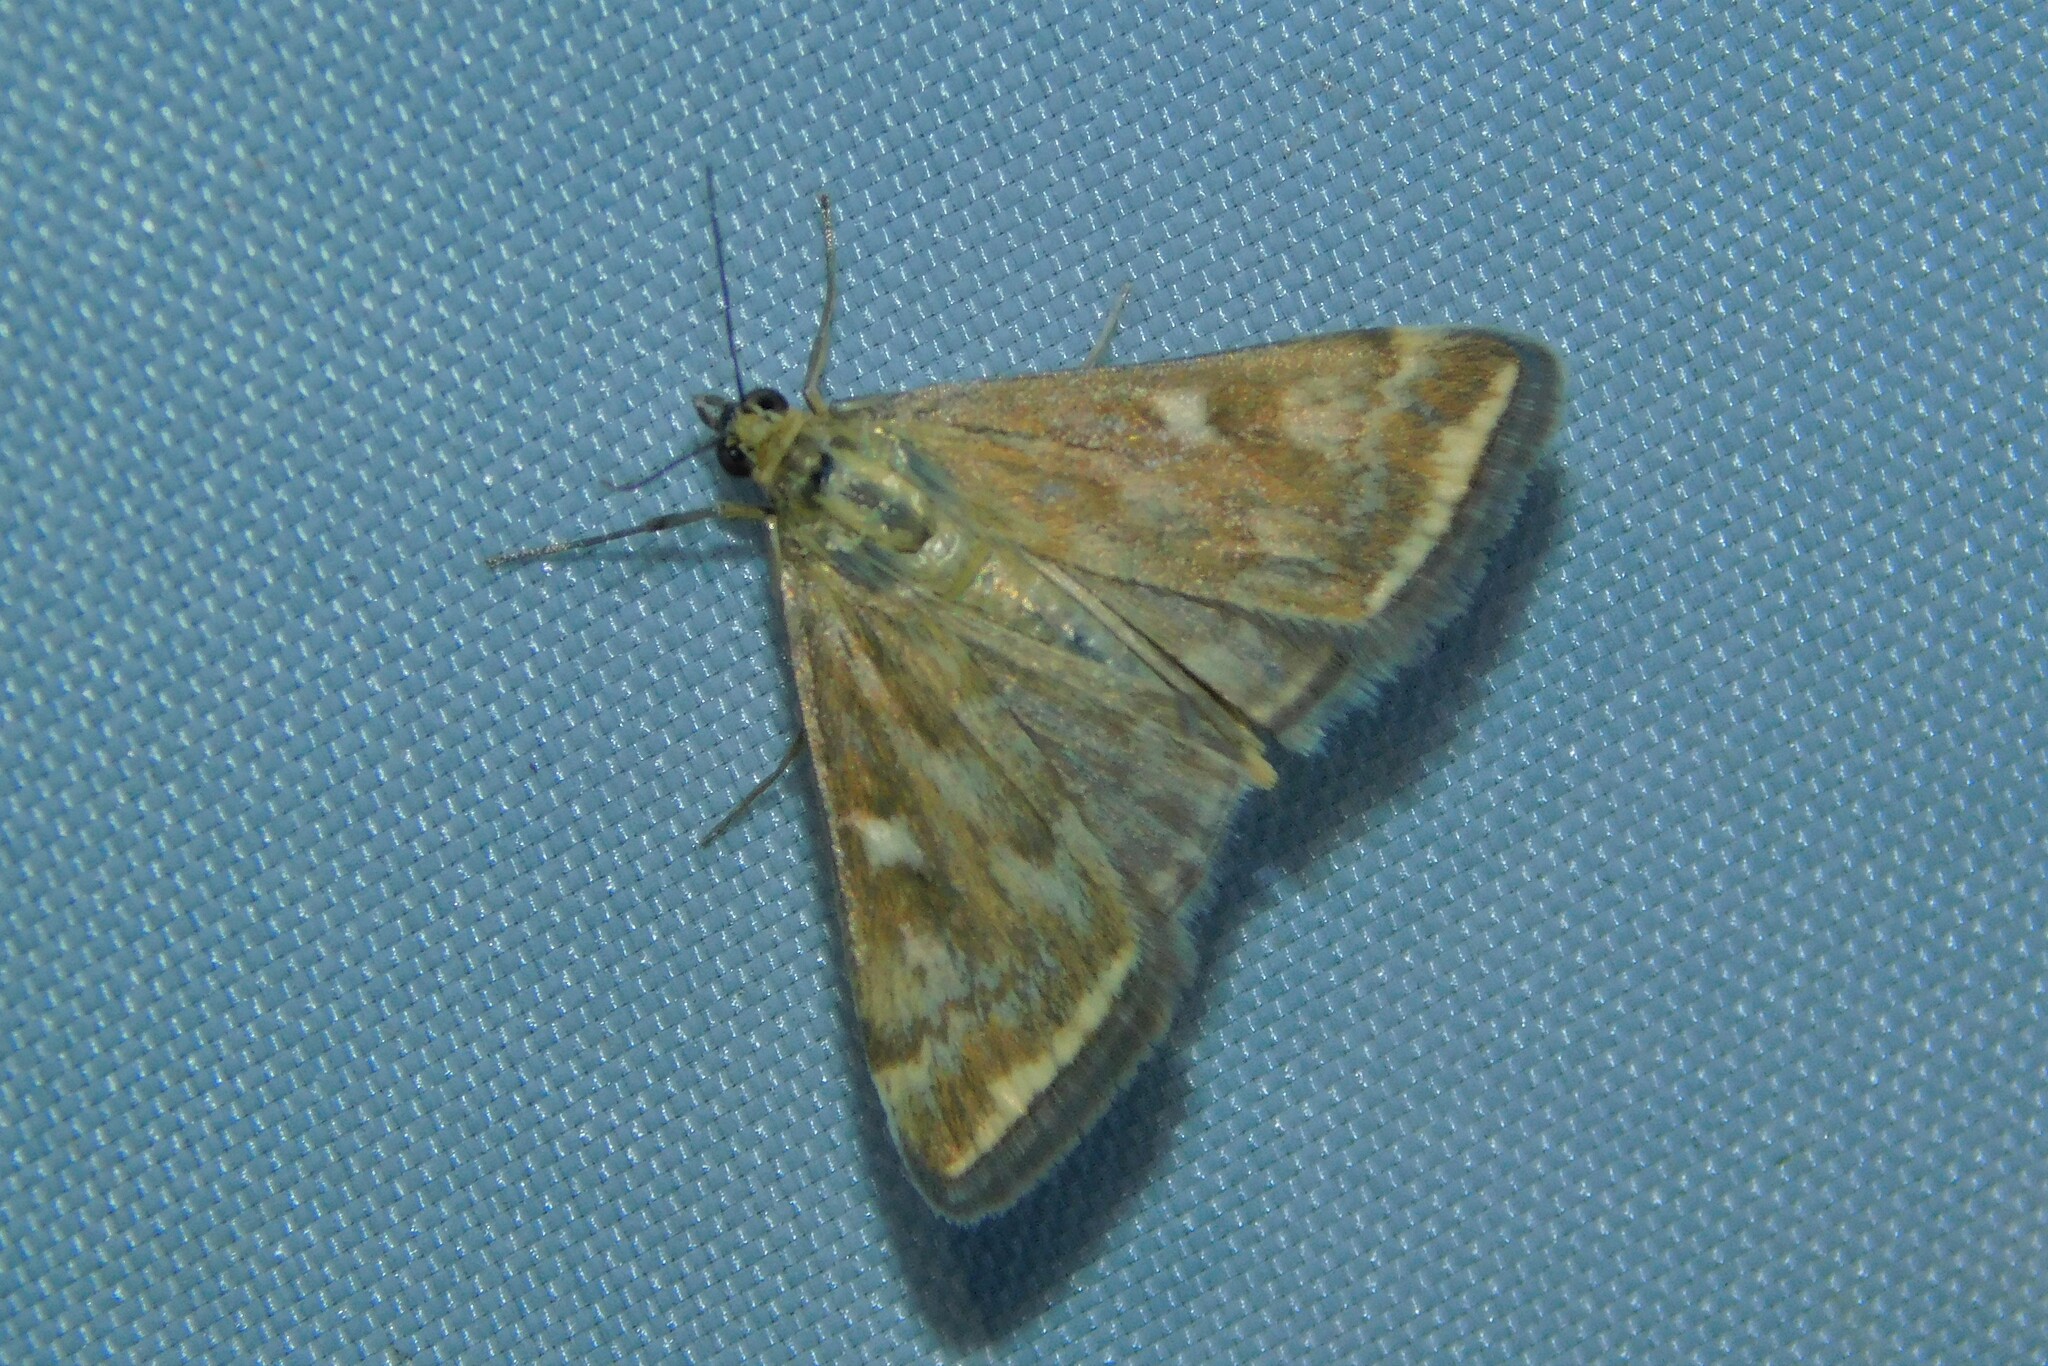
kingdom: Animalia
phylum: Arthropoda
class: Insecta
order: Lepidoptera
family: Crambidae
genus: Loxostege
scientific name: Loxostege sticticalis
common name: Crambid moth
